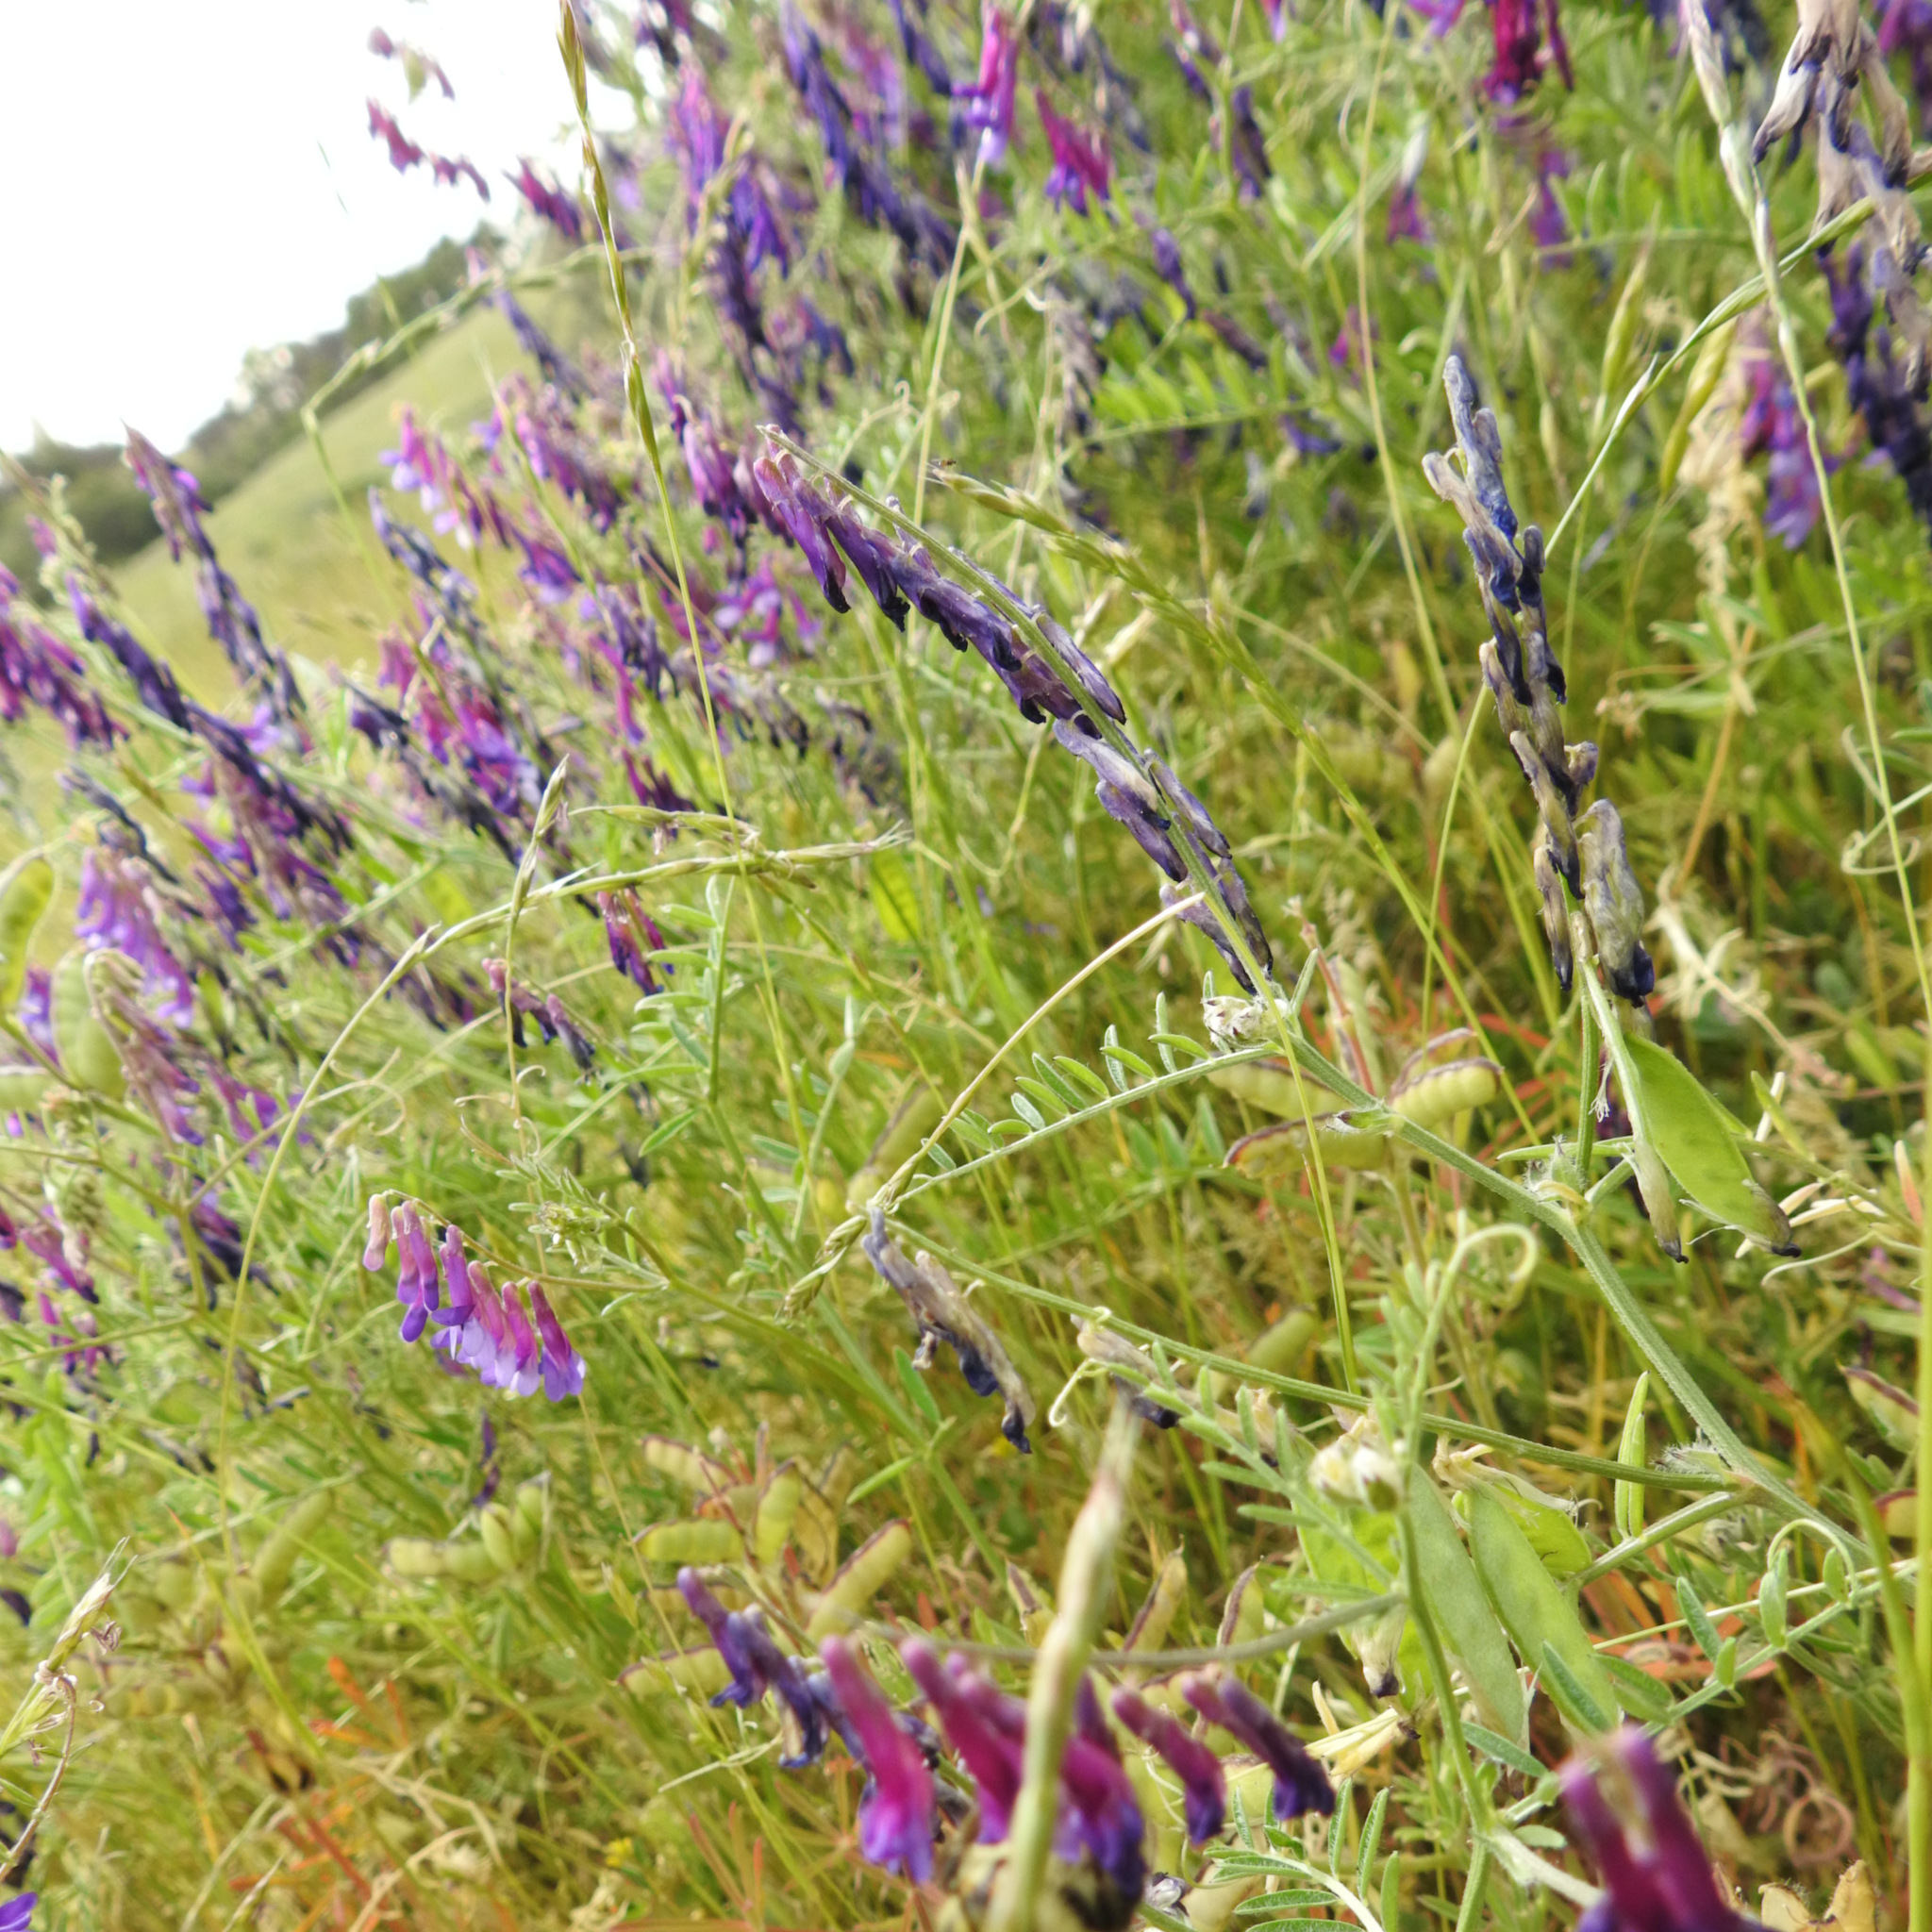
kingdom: Plantae
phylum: Tracheophyta
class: Magnoliopsida
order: Fabales
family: Fabaceae
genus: Vicia
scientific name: Vicia villosa
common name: Fodder vetch
